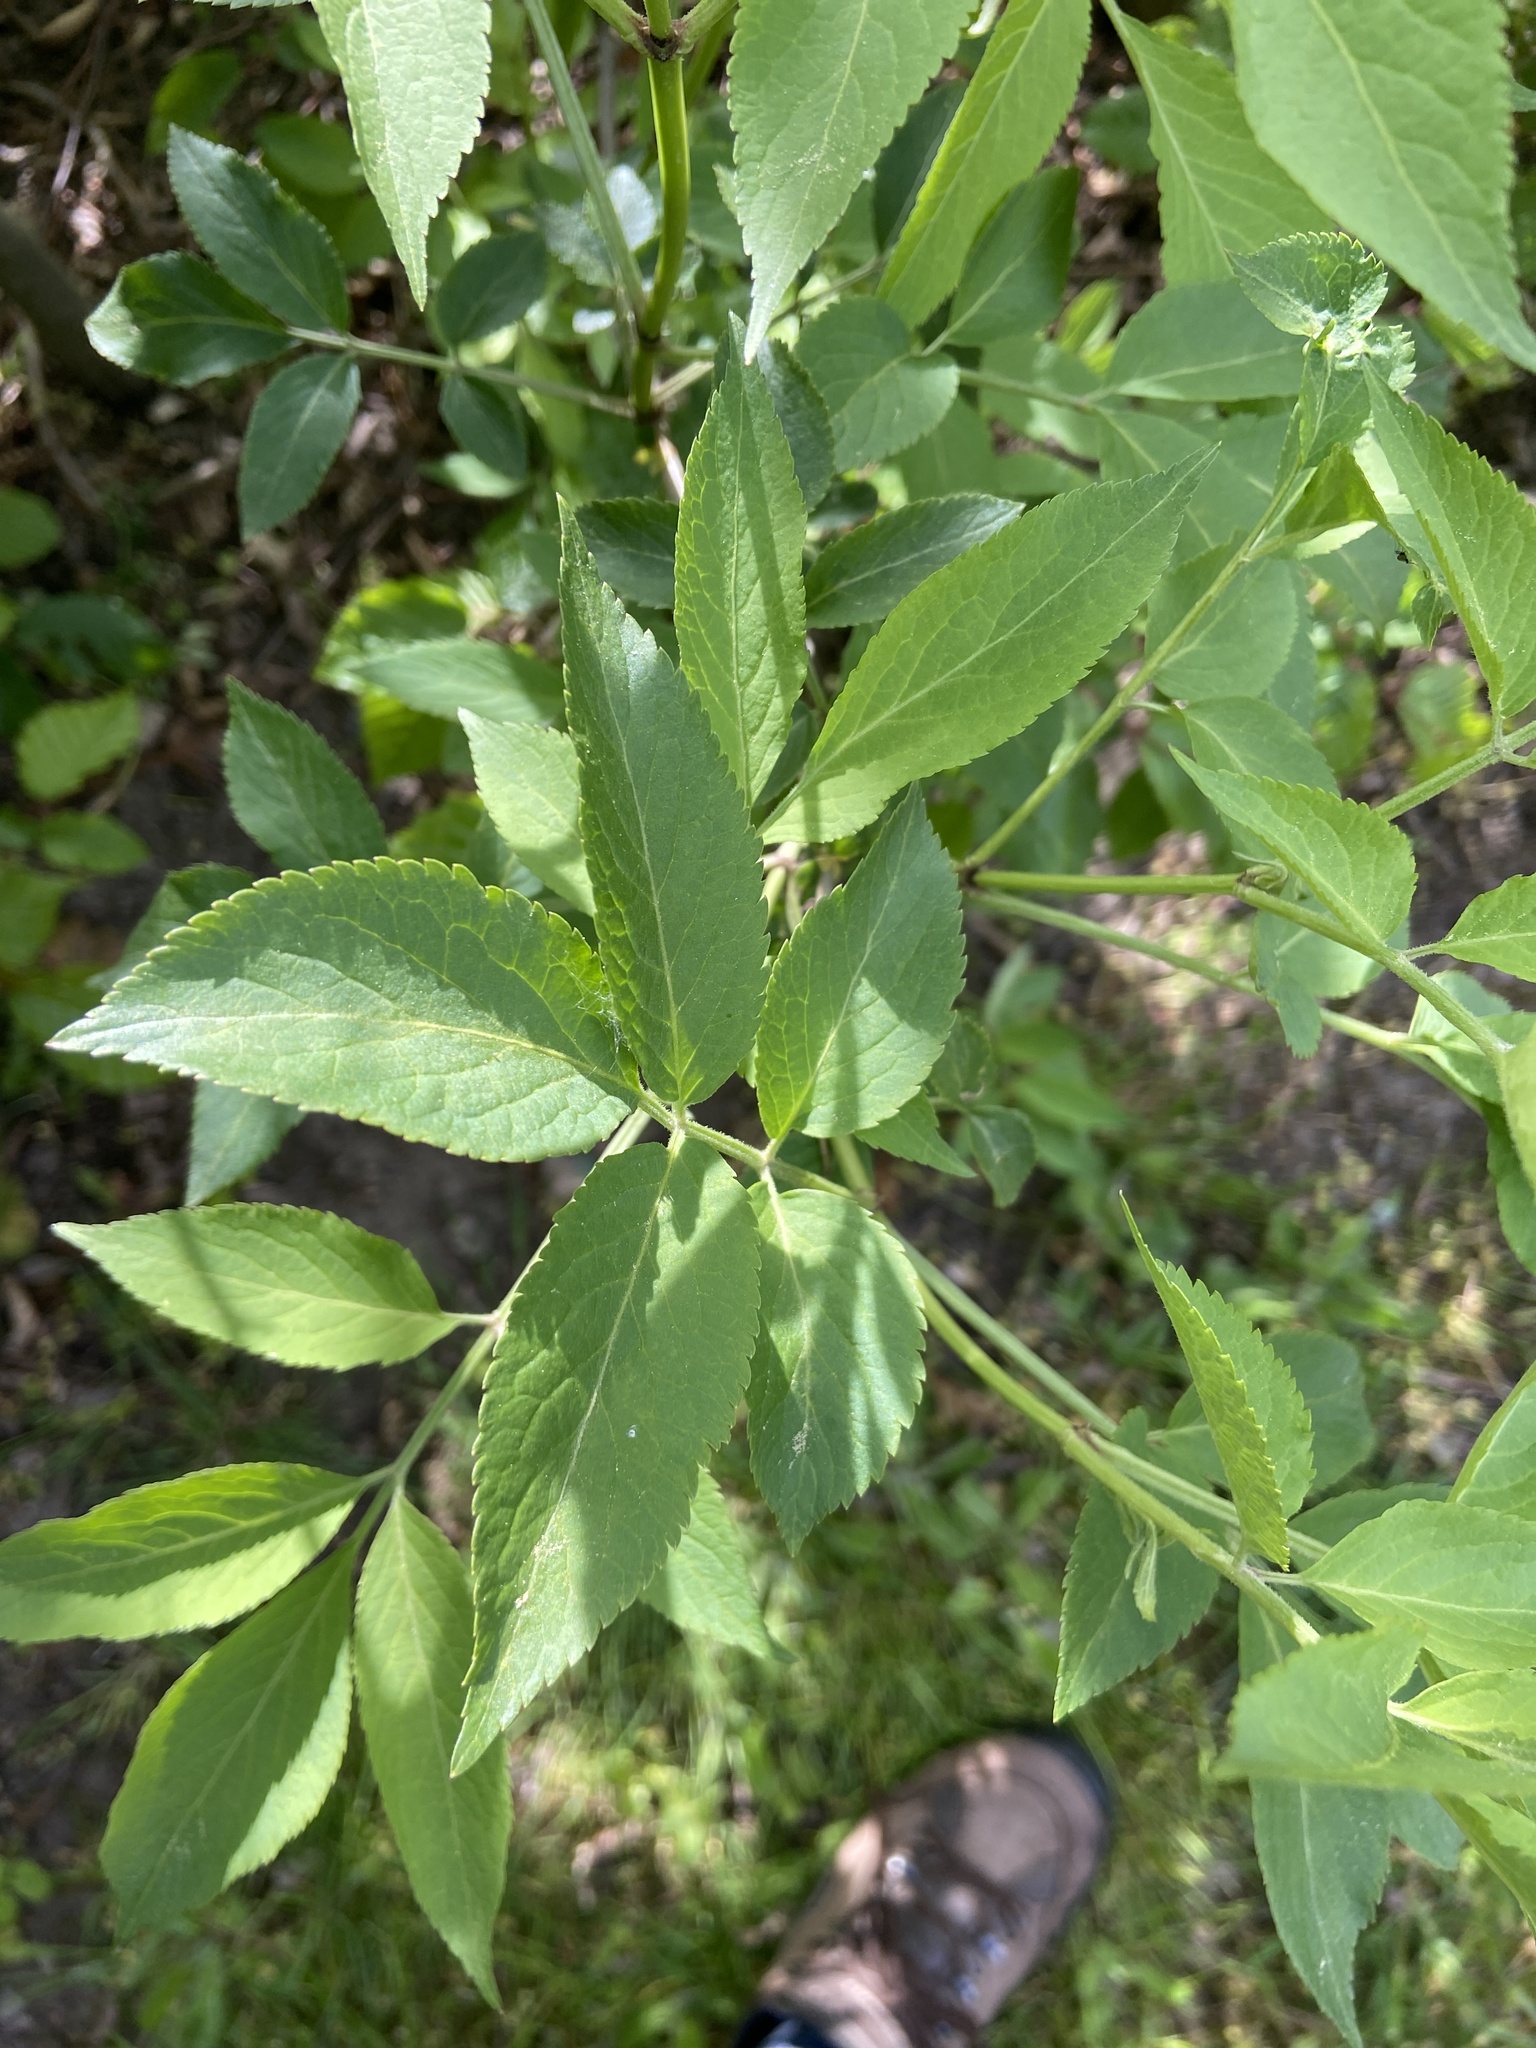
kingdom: Plantae
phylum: Tracheophyta
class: Magnoliopsida
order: Dipsacales
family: Viburnaceae
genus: Sambucus
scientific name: Sambucus nigra
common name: Elder
